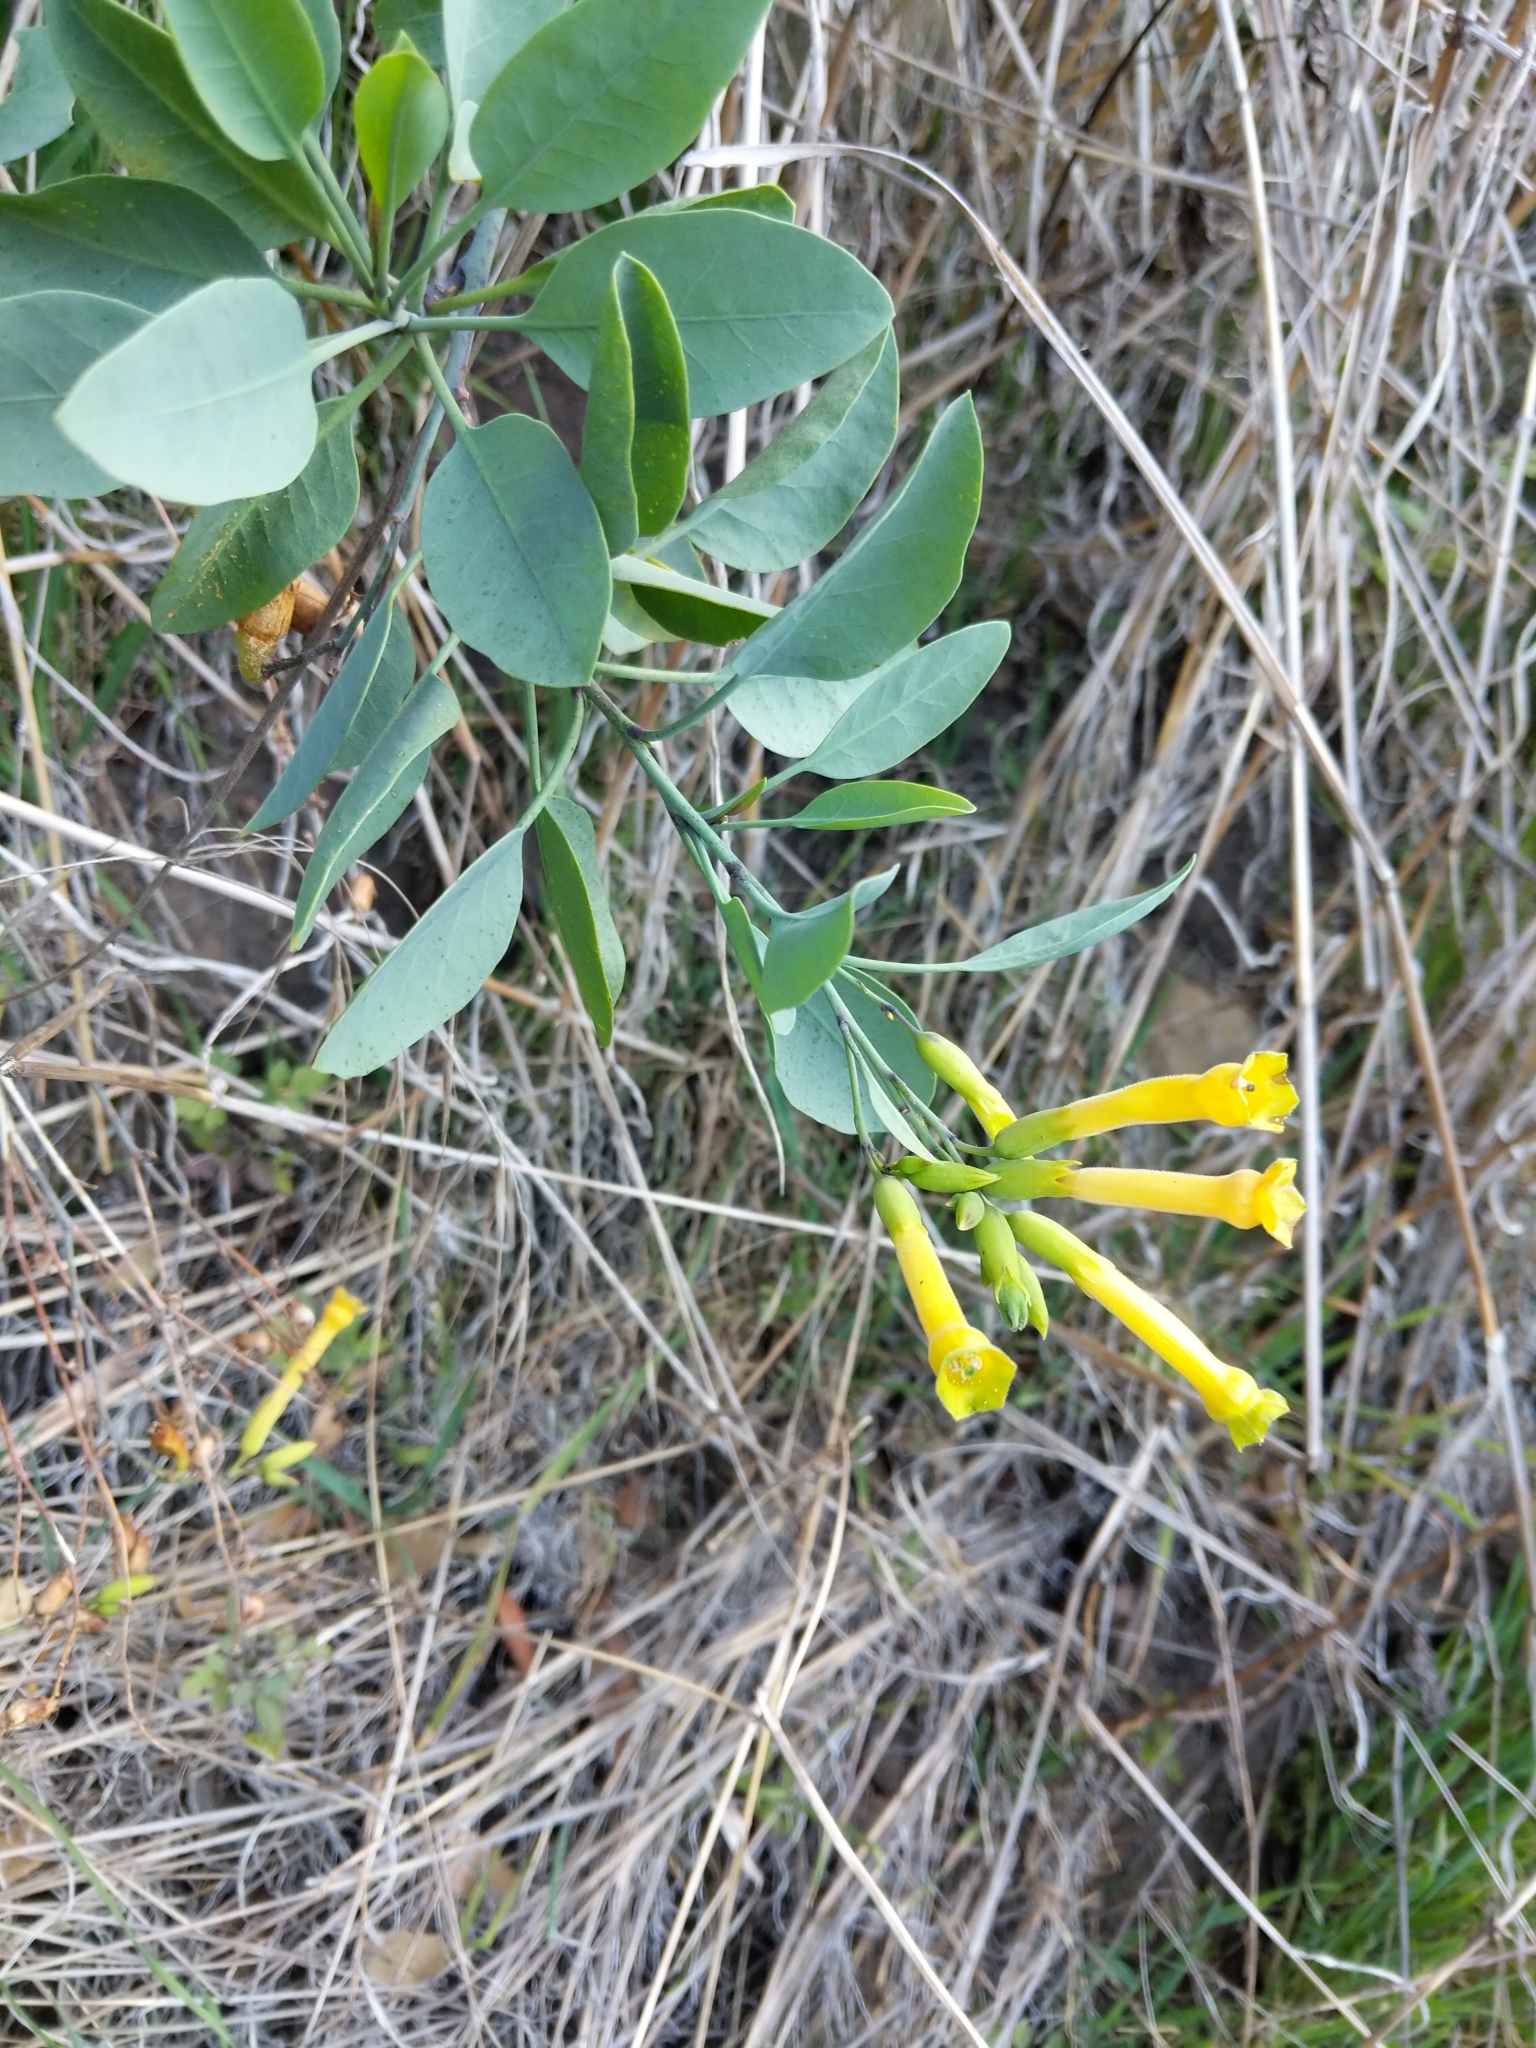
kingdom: Plantae
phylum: Tracheophyta
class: Magnoliopsida
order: Solanales
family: Solanaceae
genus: Nicotiana
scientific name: Nicotiana glauca
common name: Tree tobacco
